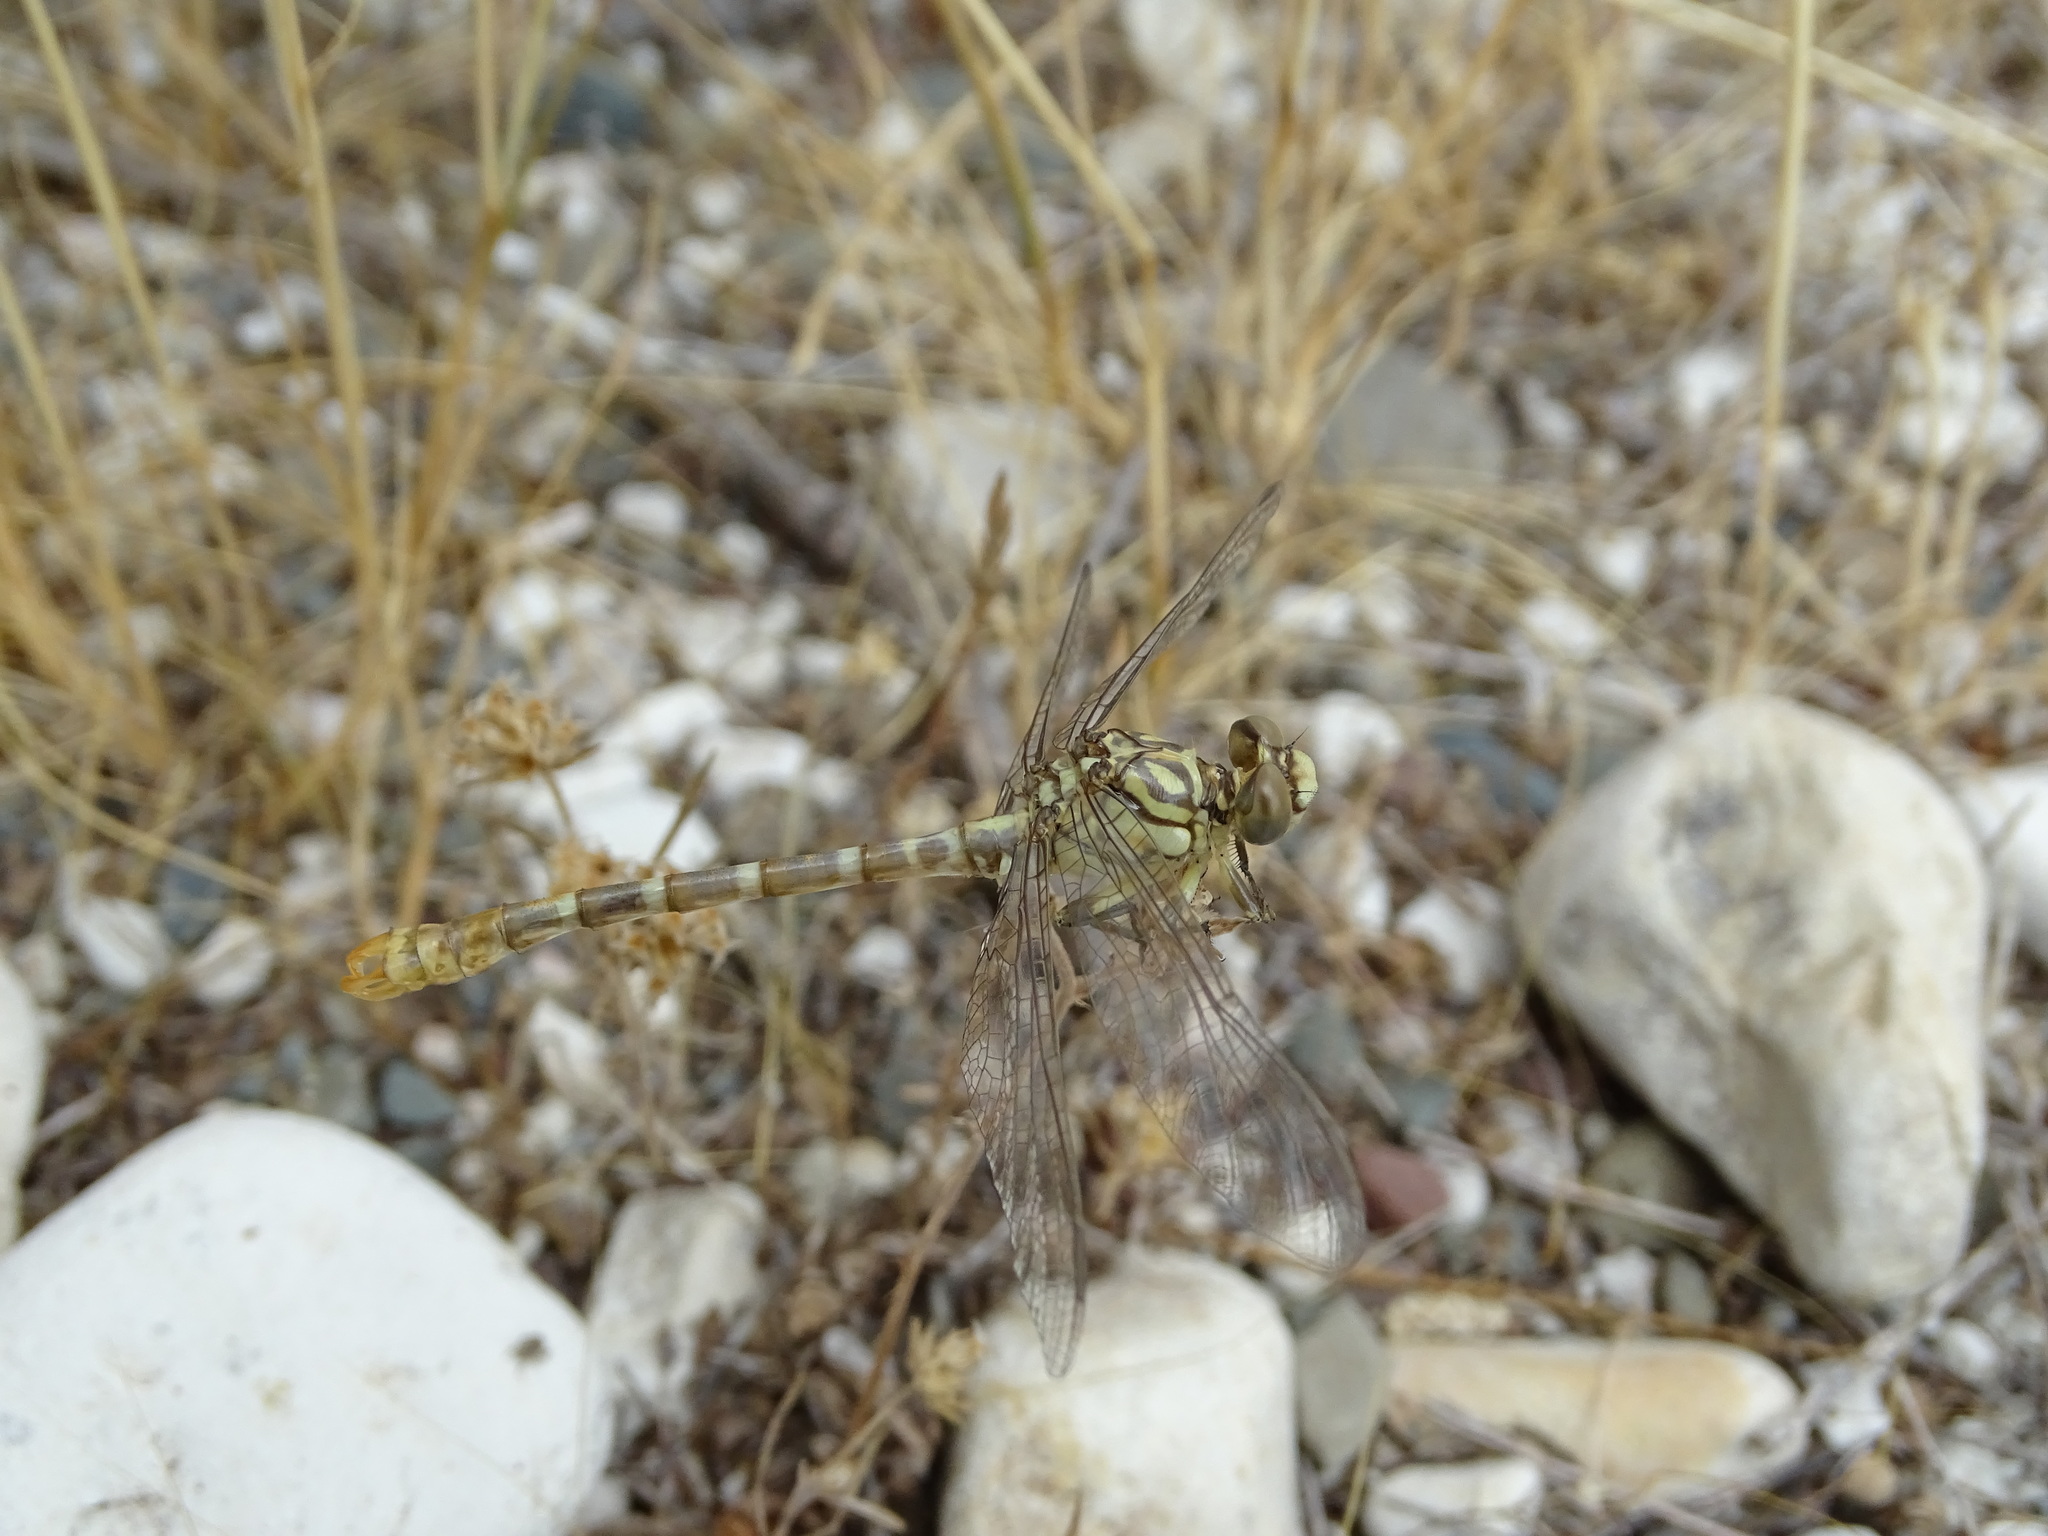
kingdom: Animalia
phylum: Arthropoda
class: Insecta
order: Odonata
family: Gomphidae
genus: Onychogomphus
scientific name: Onychogomphus forcipatus
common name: Small pincertail
